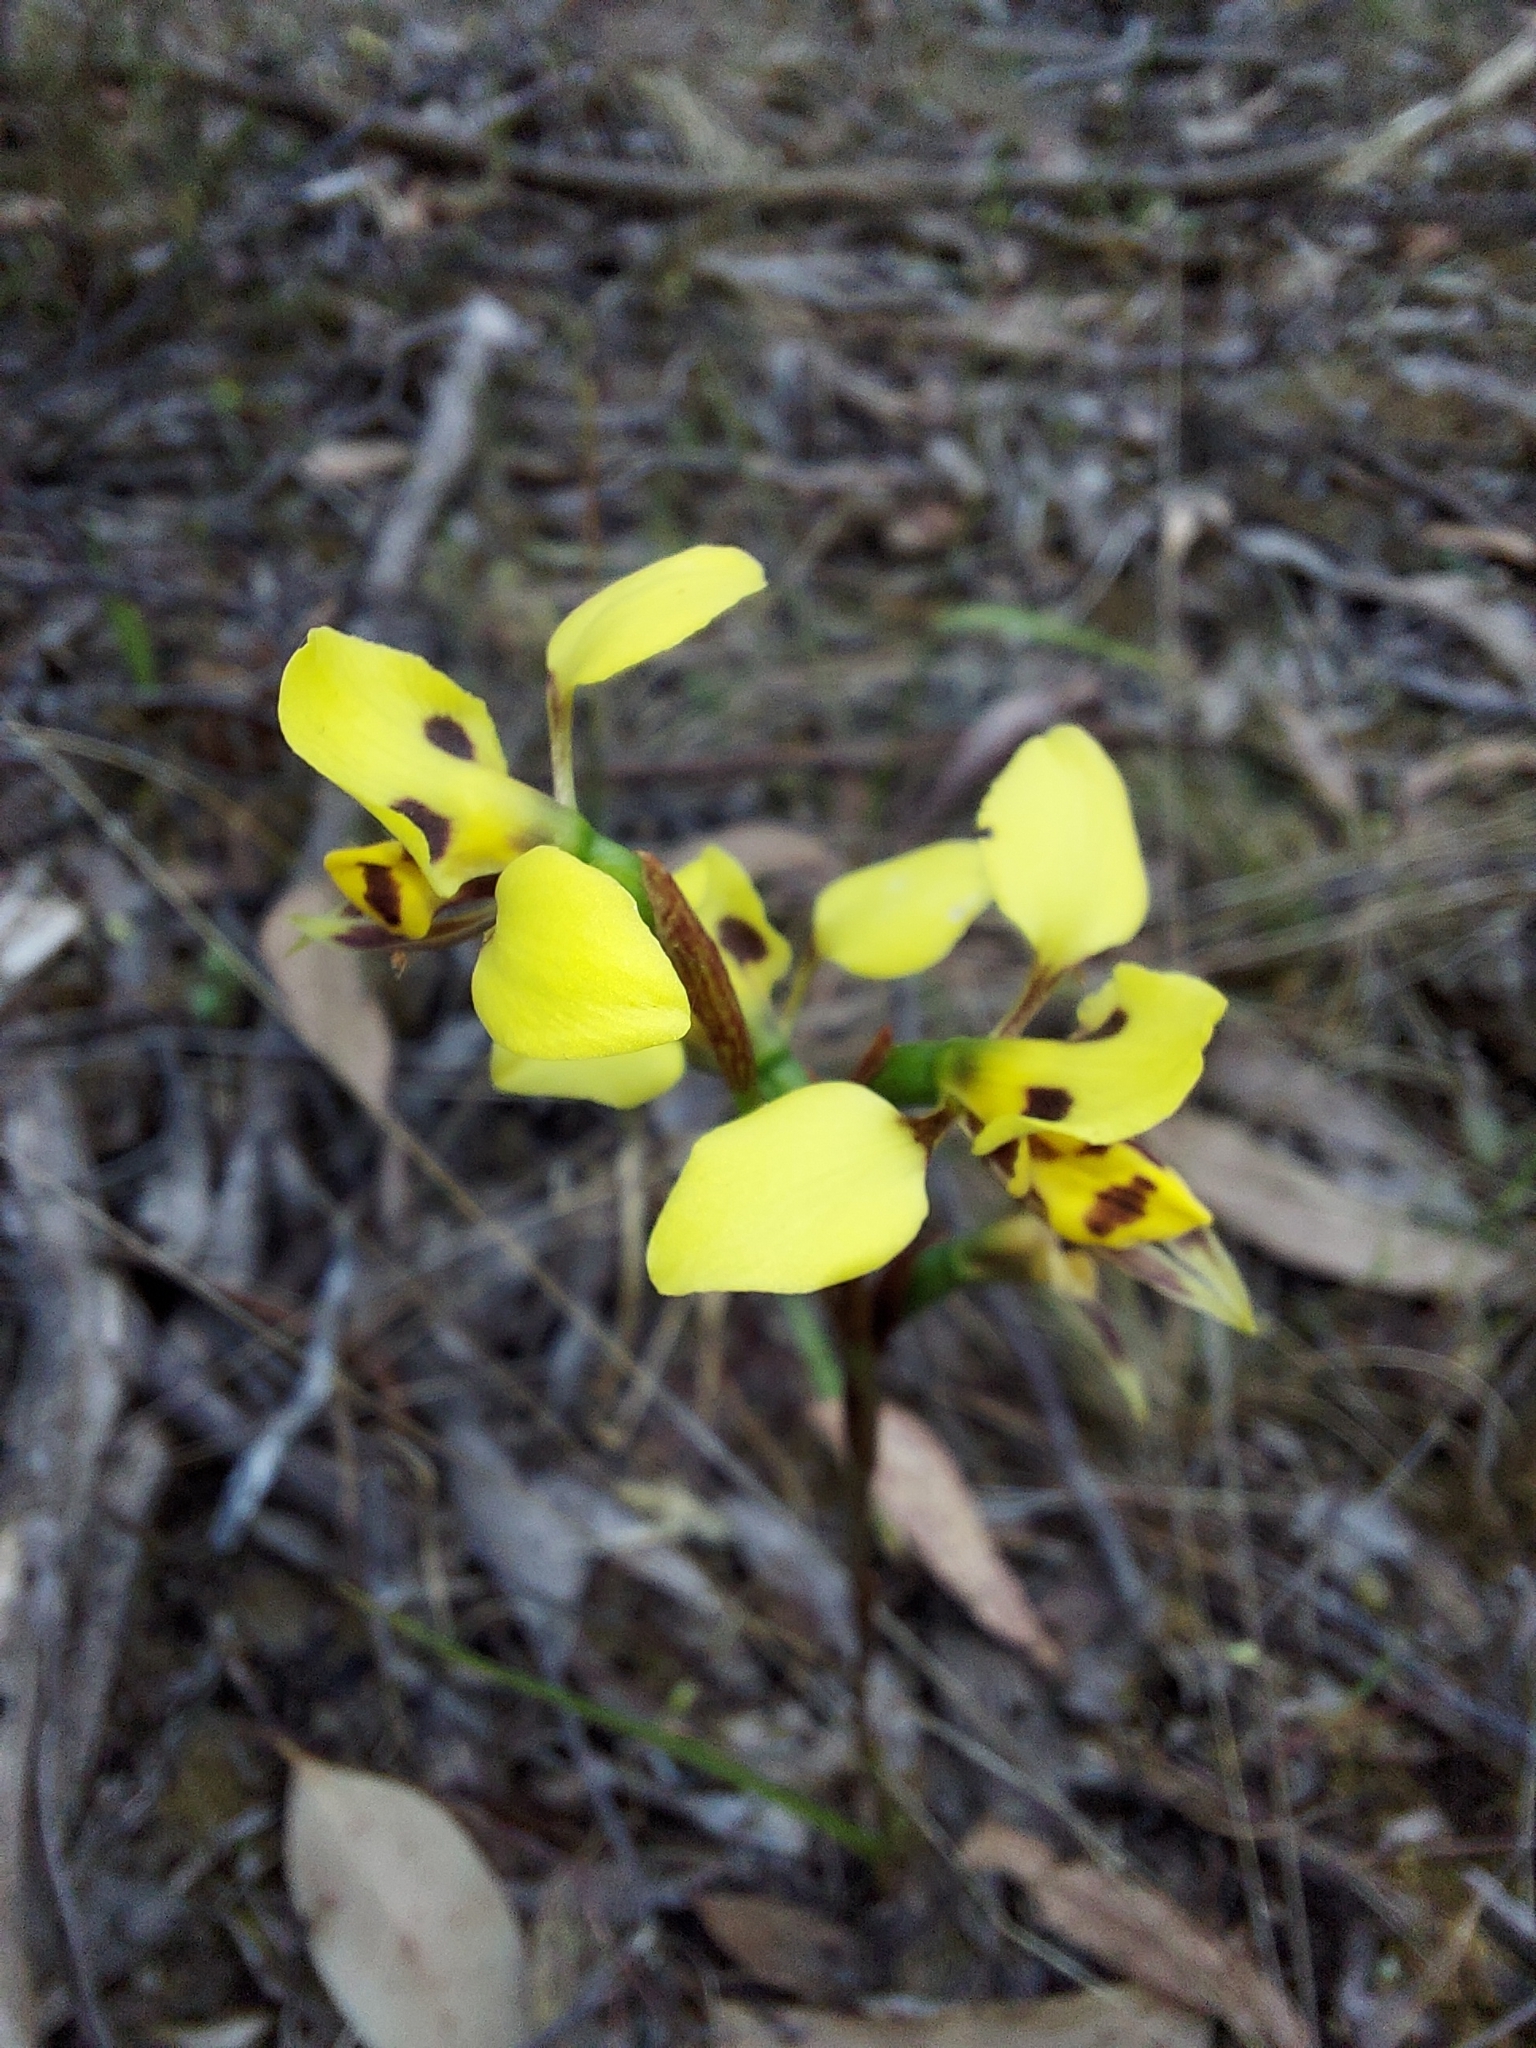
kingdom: Plantae
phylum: Tracheophyta
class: Liliopsida
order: Asparagales
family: Orchidaceae
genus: Diuris
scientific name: Diuris sulphurea
